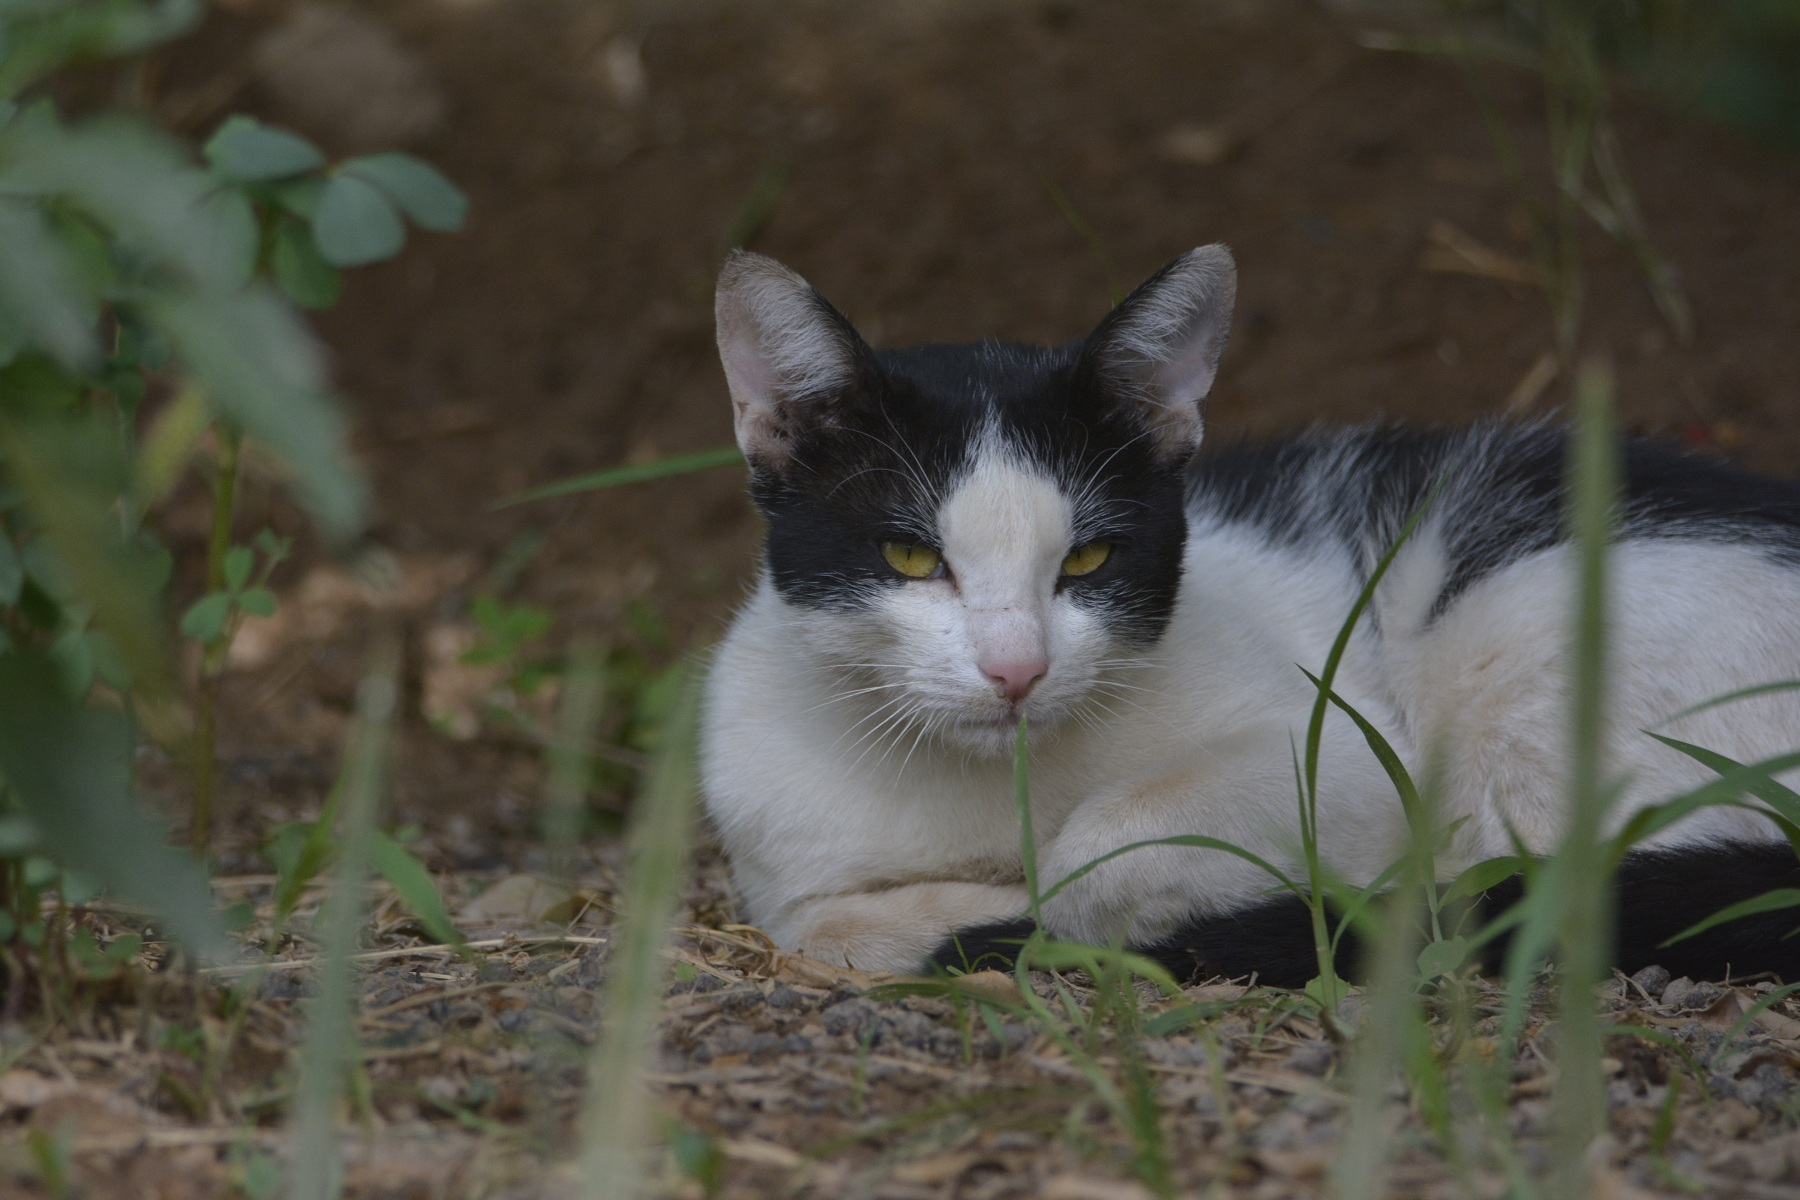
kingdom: Animalia
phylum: Chordata
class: Mammalia
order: Carnivora
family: Felidae
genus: Felis
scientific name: Felis catus
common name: Domestic cat
